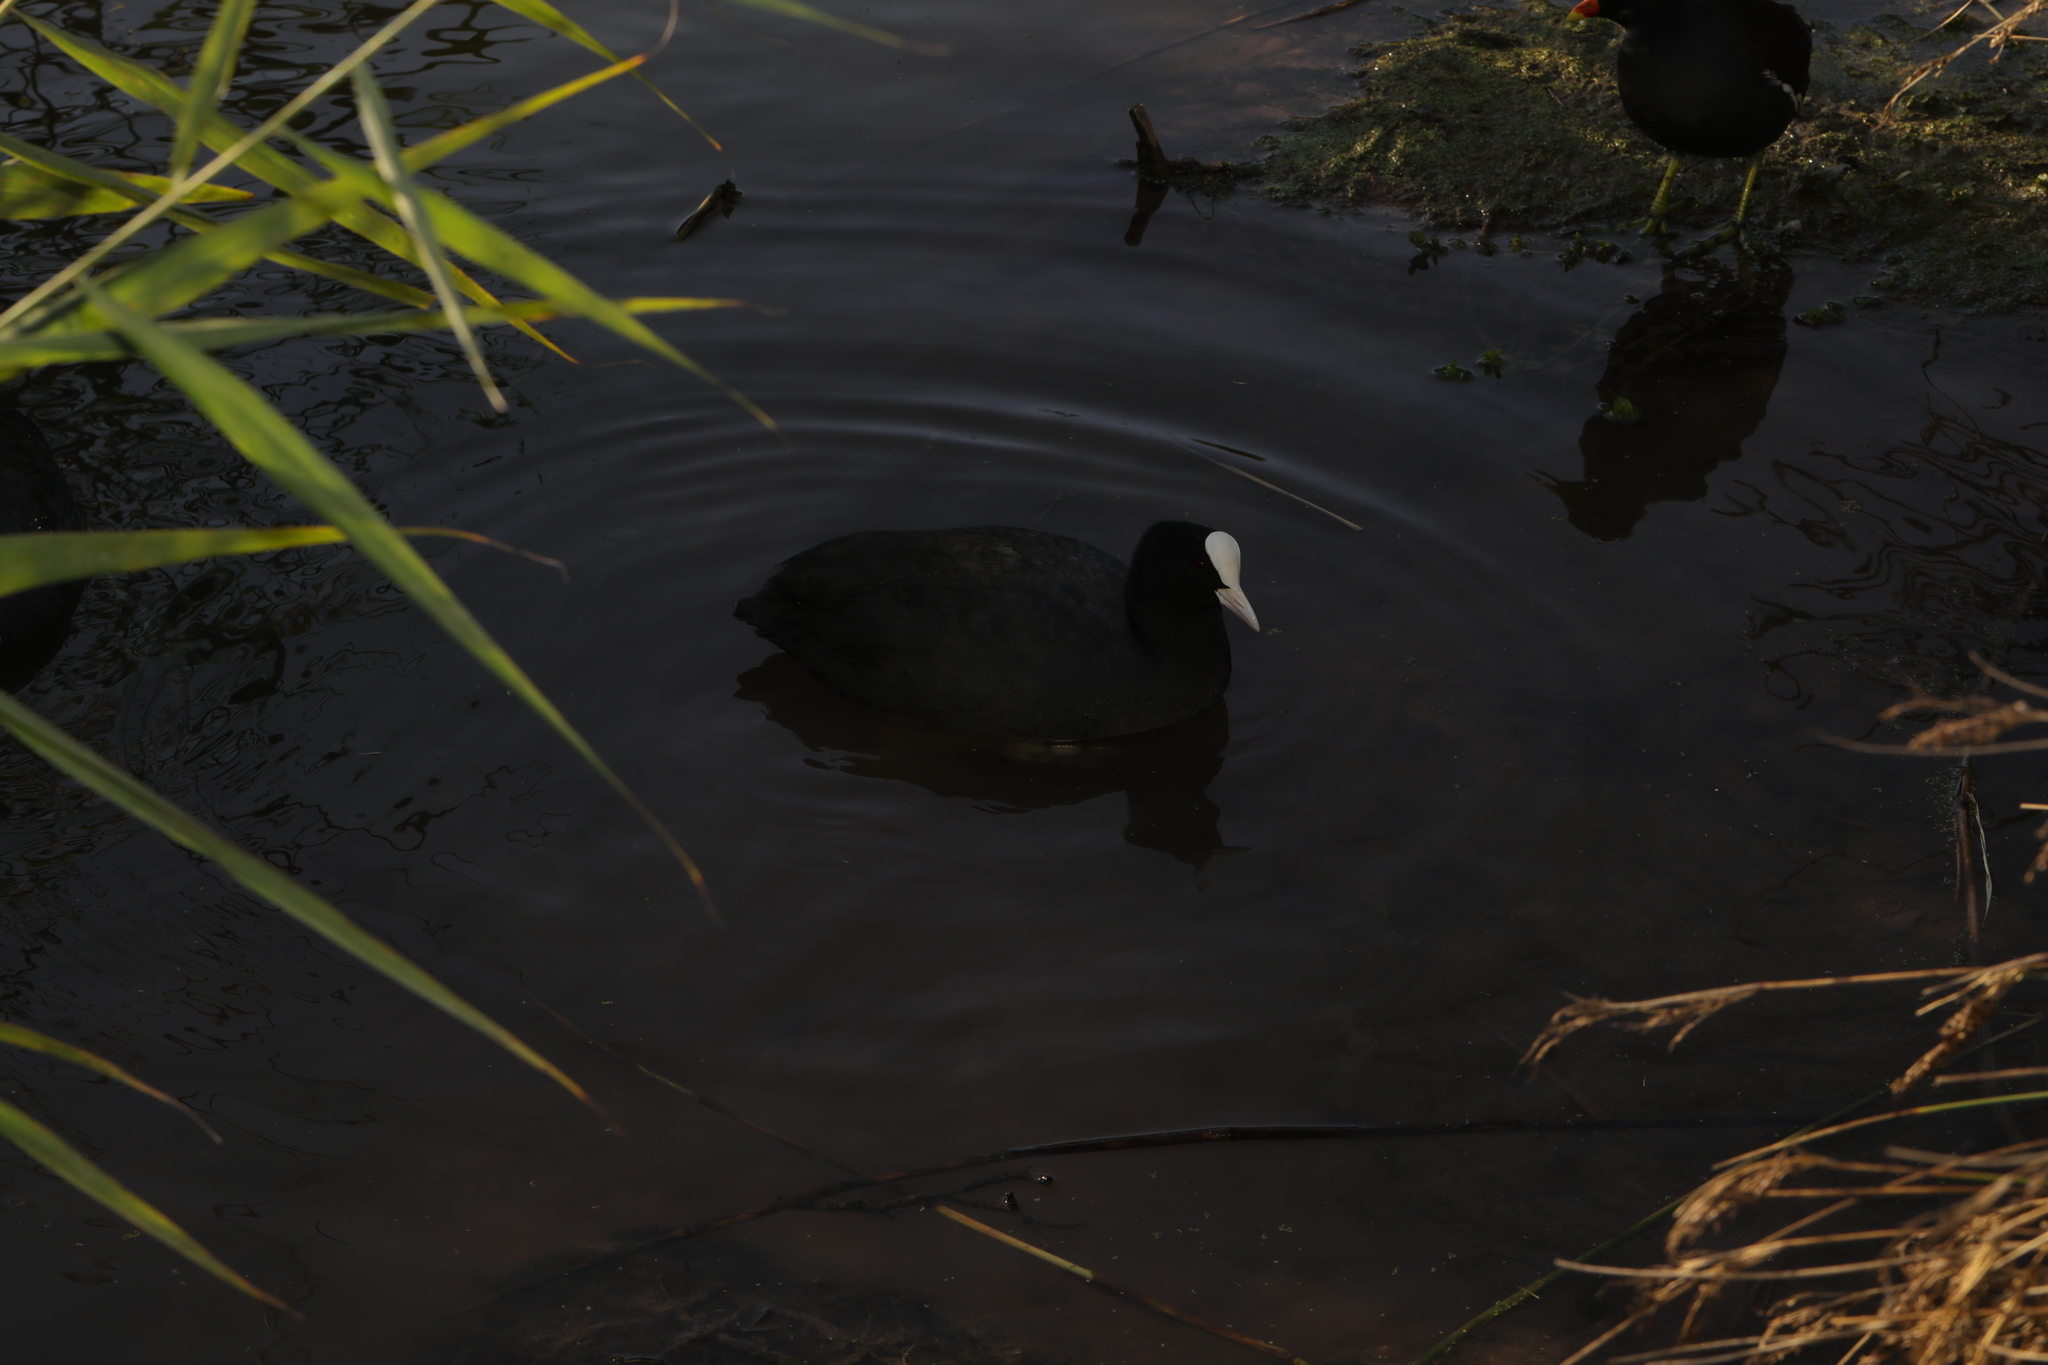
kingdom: Animalia
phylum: Chordata
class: Aves
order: Gruiformes
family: Rallidae
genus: Fulica
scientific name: Fulica atra
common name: Eurasian coot
